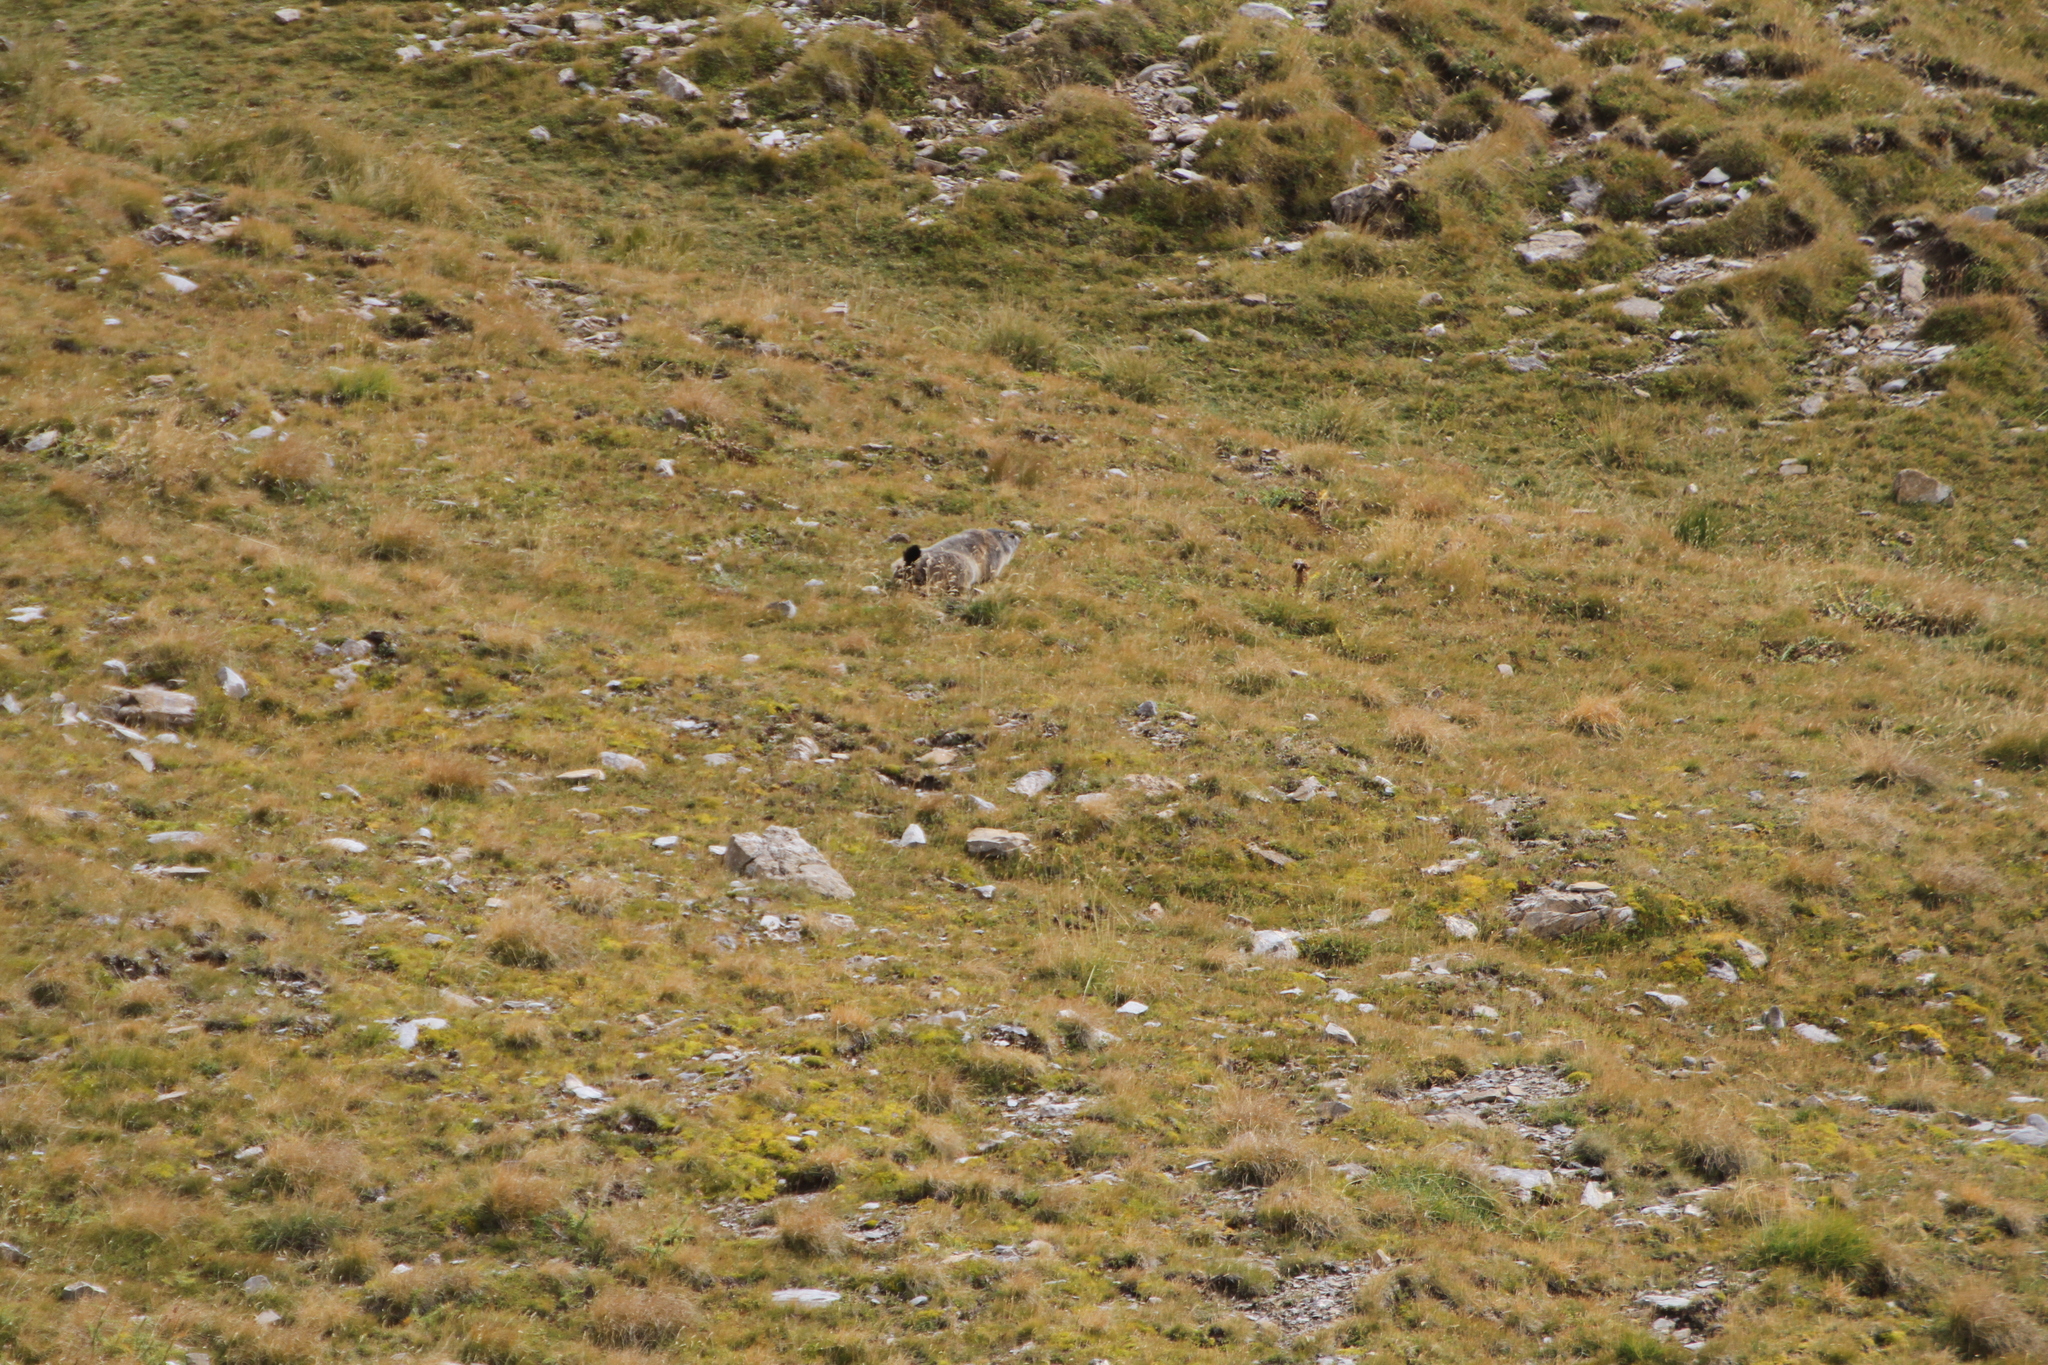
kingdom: Animalia
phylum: Chordata
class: Mammalia
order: Rodentia
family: Sciuridae
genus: Marmota
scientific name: Marmota marmota
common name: Alpine marmot
